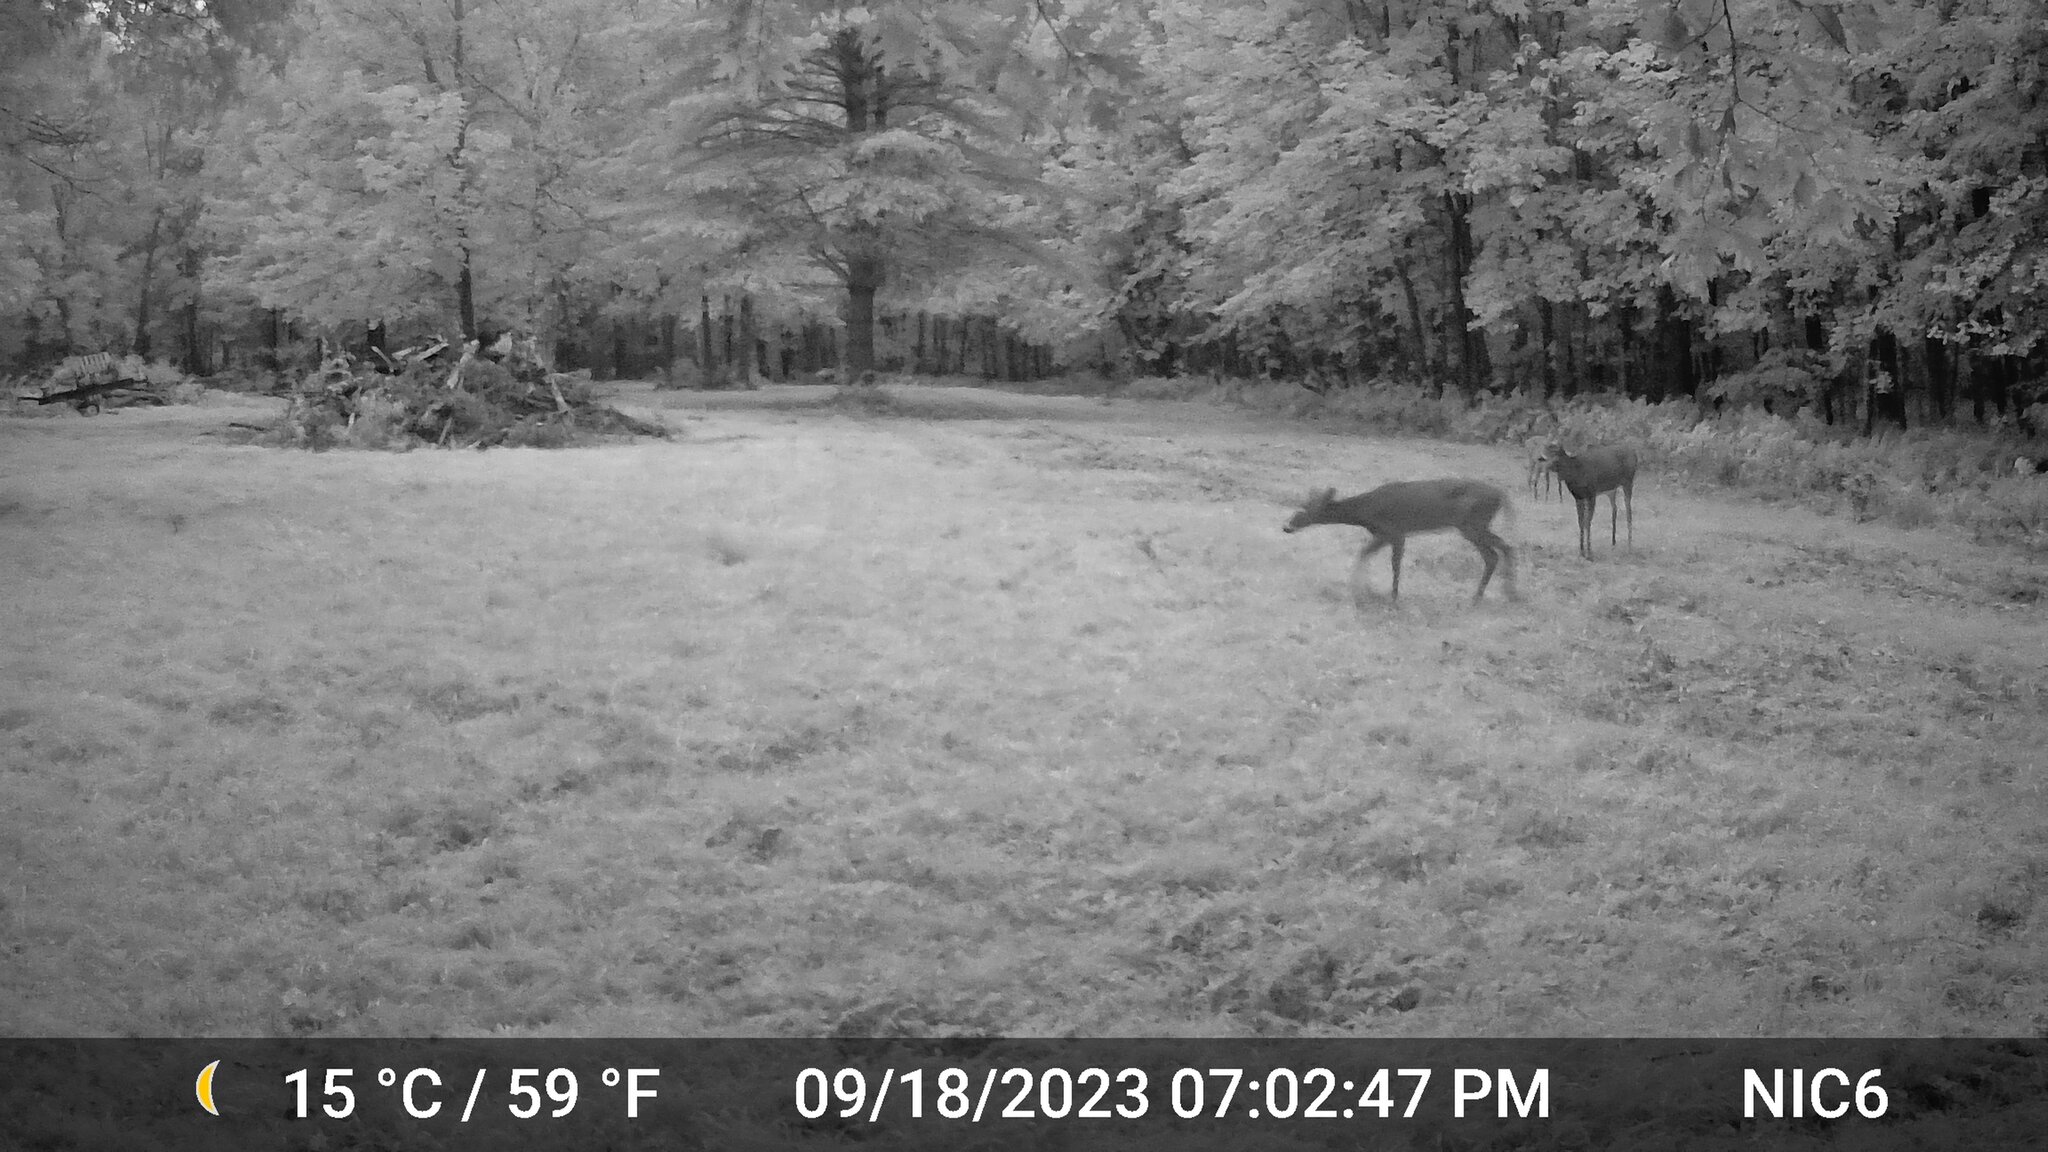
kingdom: Animalia
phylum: Chordata
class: Mammalia
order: Artiodactyla
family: Cervidae
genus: Odocoileus
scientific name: Odocoileus virginianus
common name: White-tailed deer
